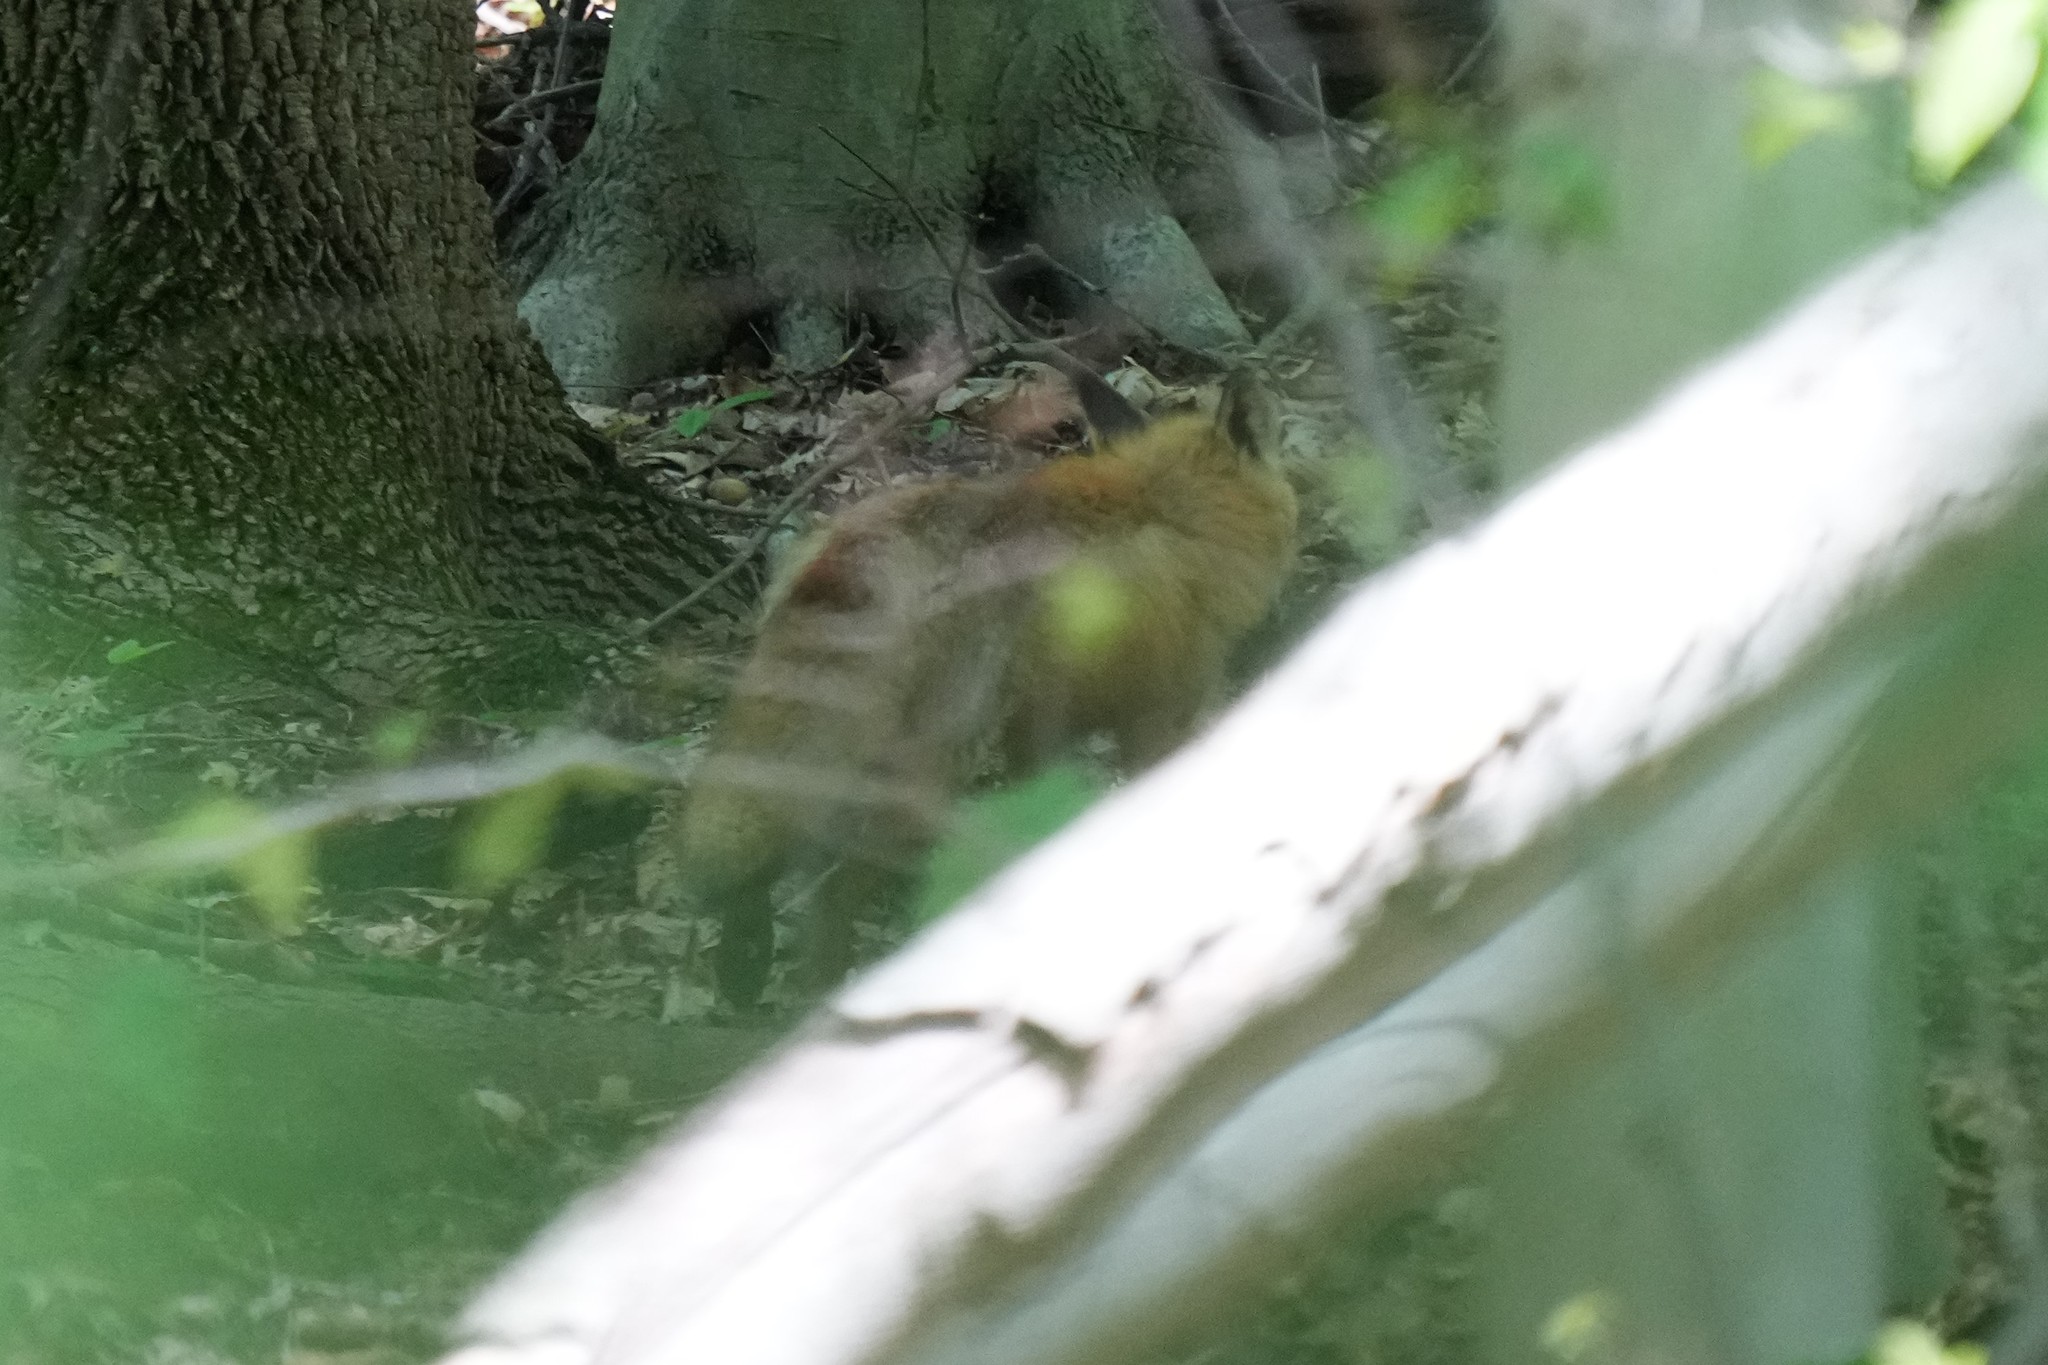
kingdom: Animalia
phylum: Chordata
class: Mammalia
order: Carnivora
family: Canidae
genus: Vulpes
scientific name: Vulpes vulpes
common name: Red fox
